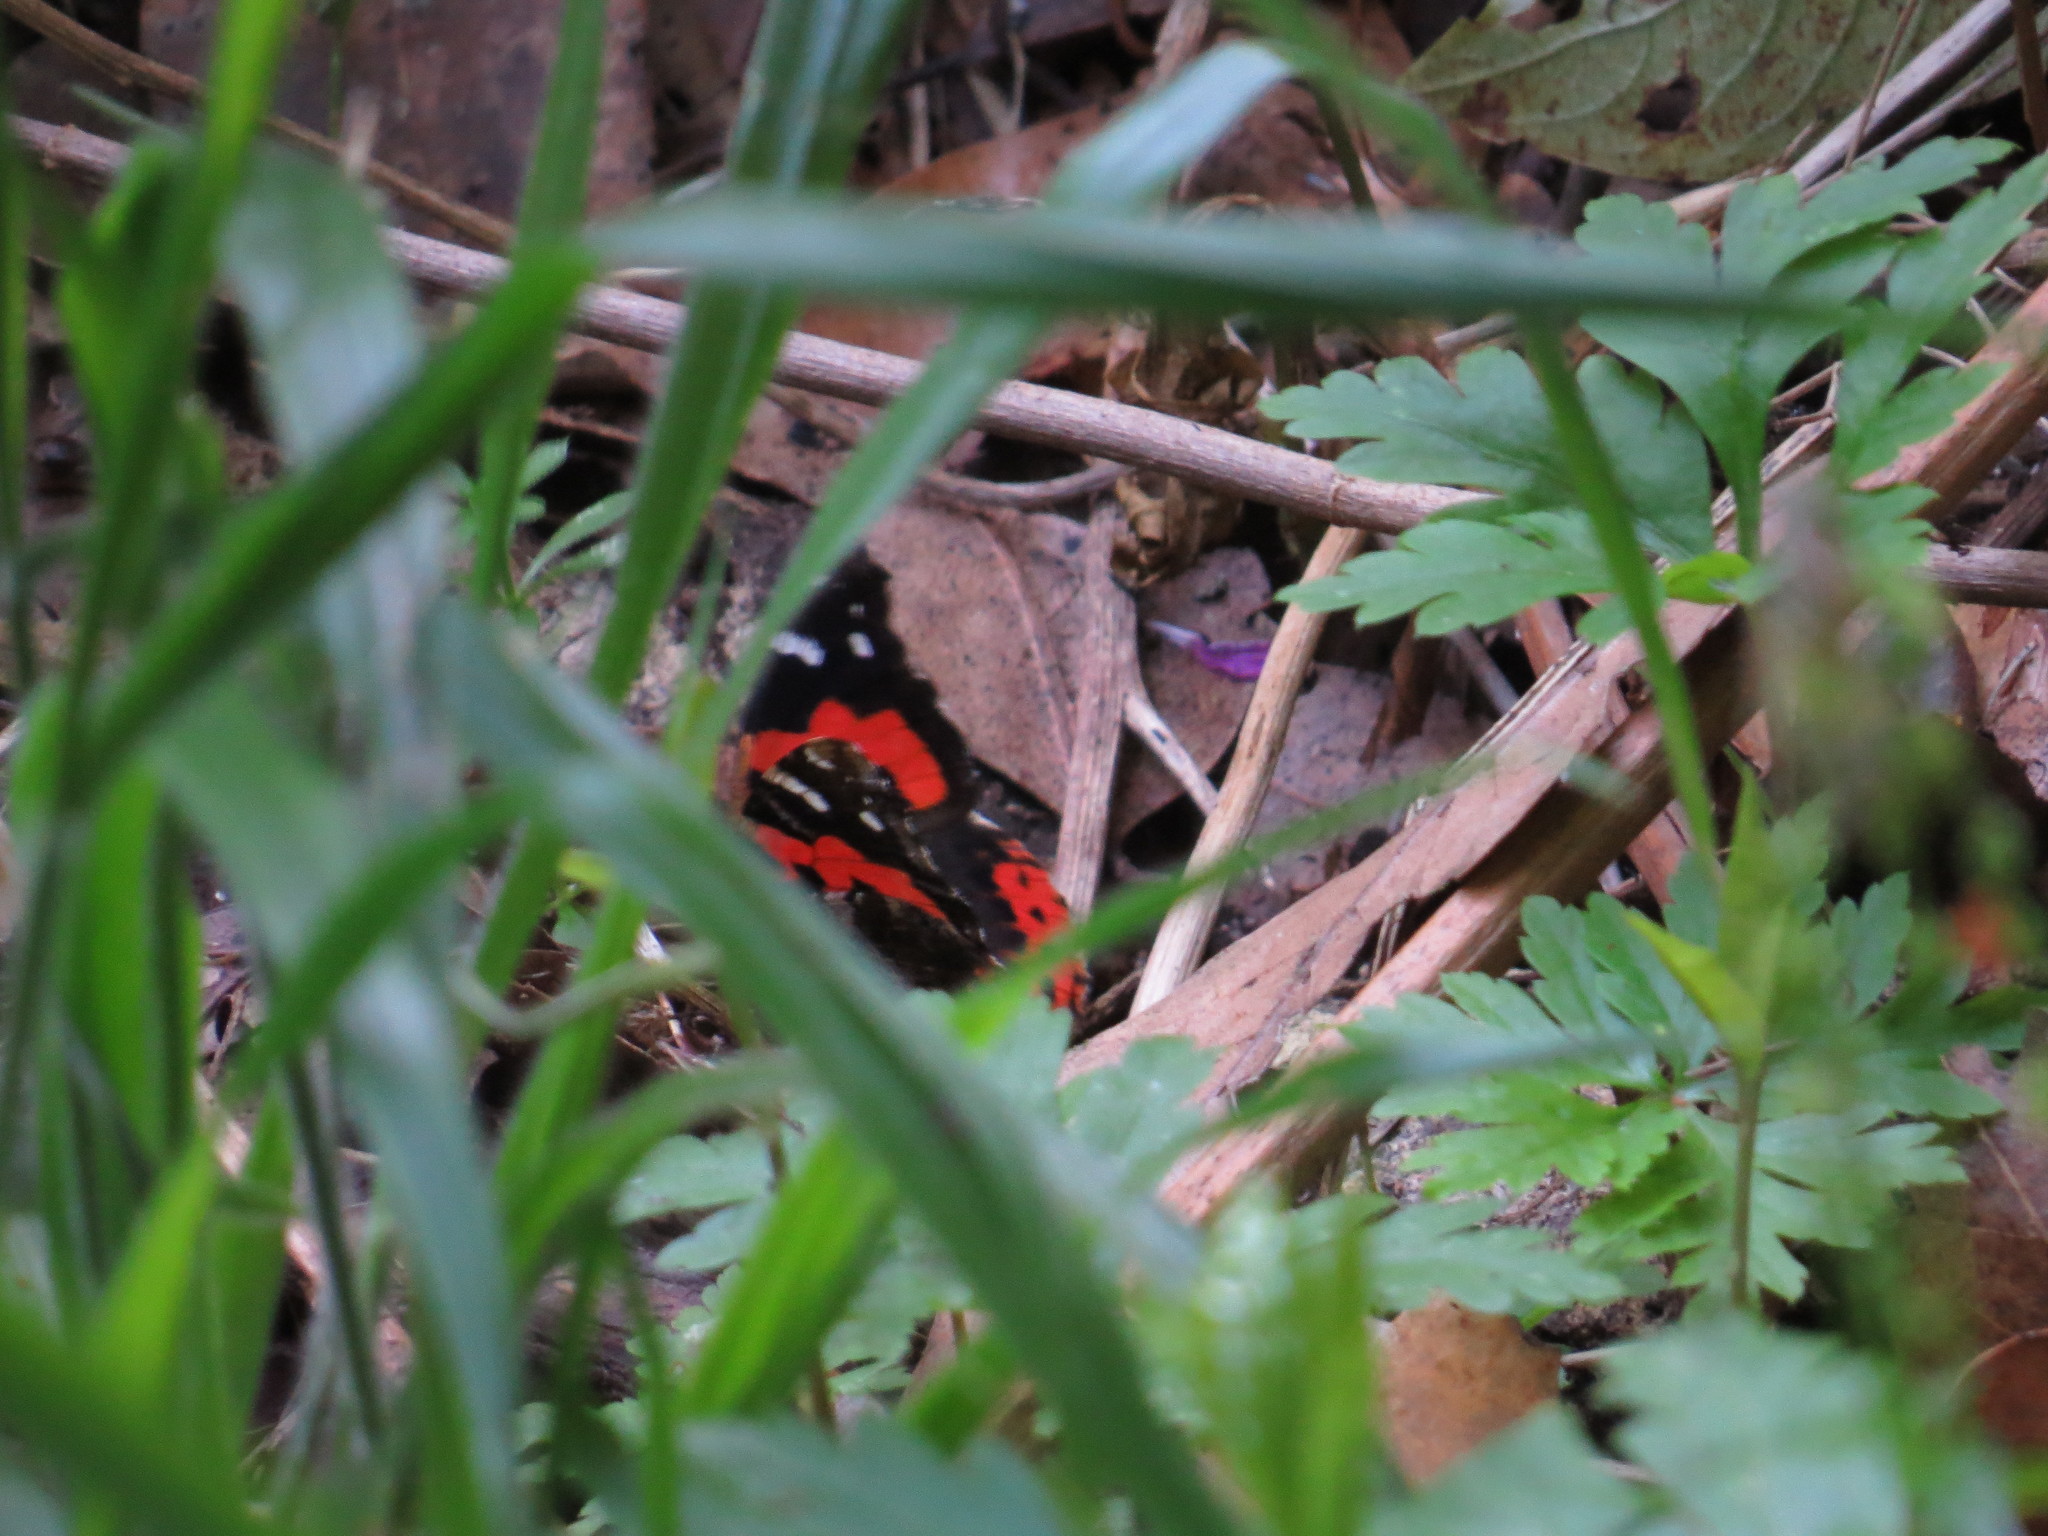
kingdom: Animalia
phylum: Arthropoda
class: Insecta
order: Lepidoptera
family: Nymphalidae
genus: Vanessa
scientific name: Vanessa vulcania
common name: Canary red admiral
